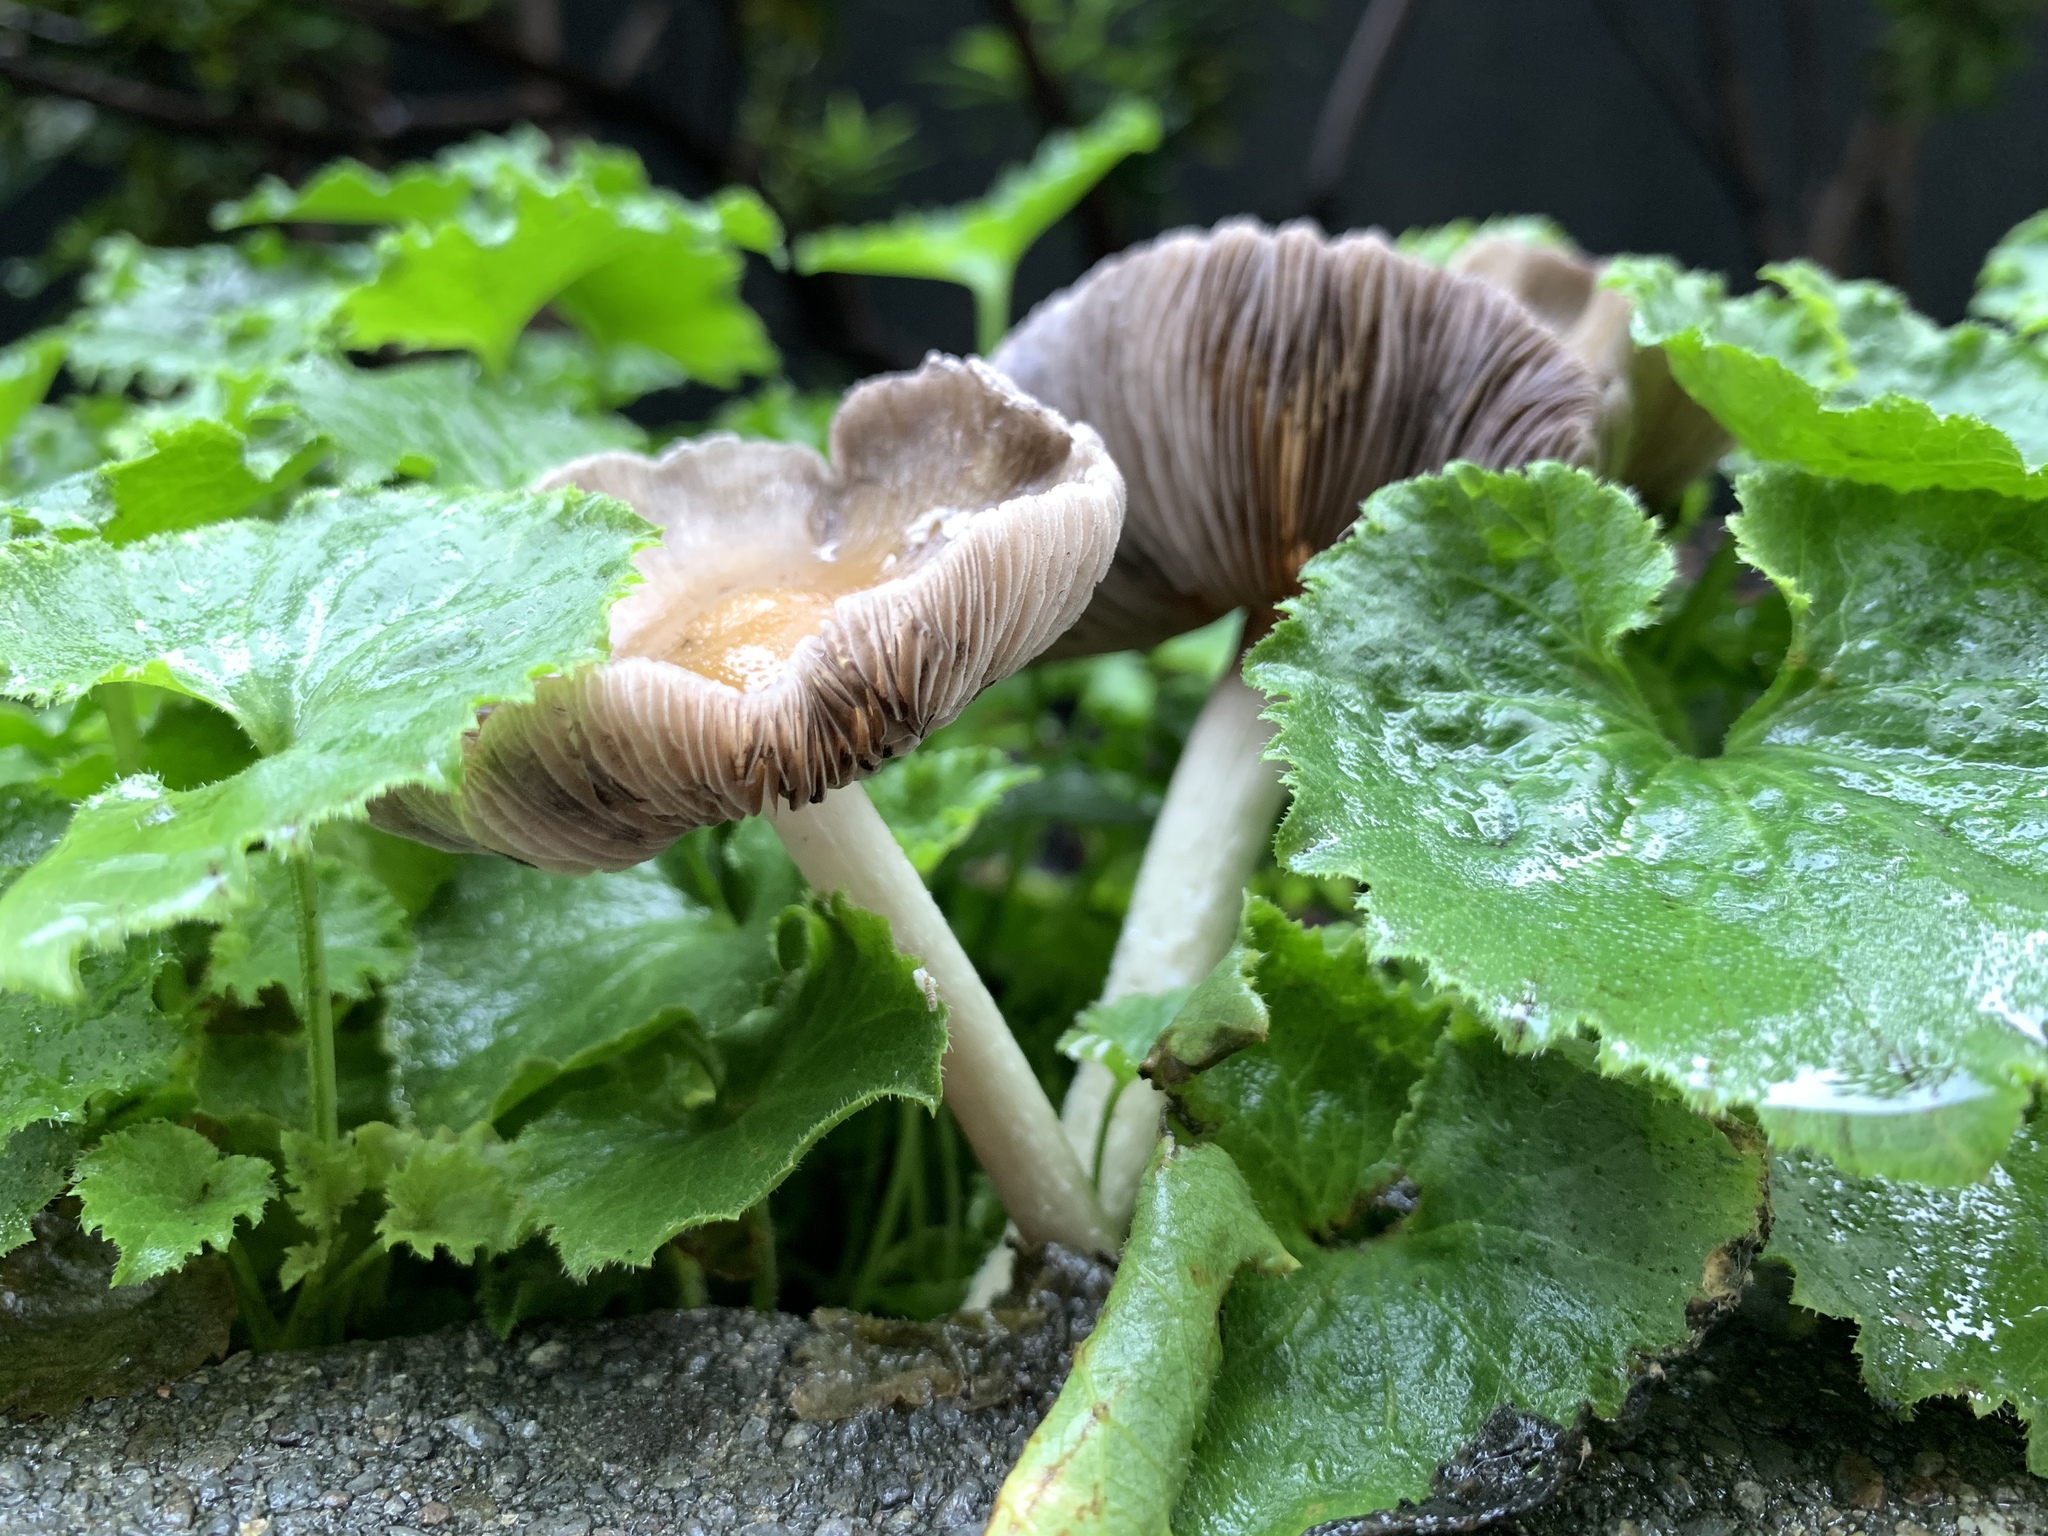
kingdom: Fungi
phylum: Basidiomycota
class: Agaricomycetes
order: Agaricales
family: Psathyrellaceae
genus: Candolleomyces
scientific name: Candolleomyces candolleanus
